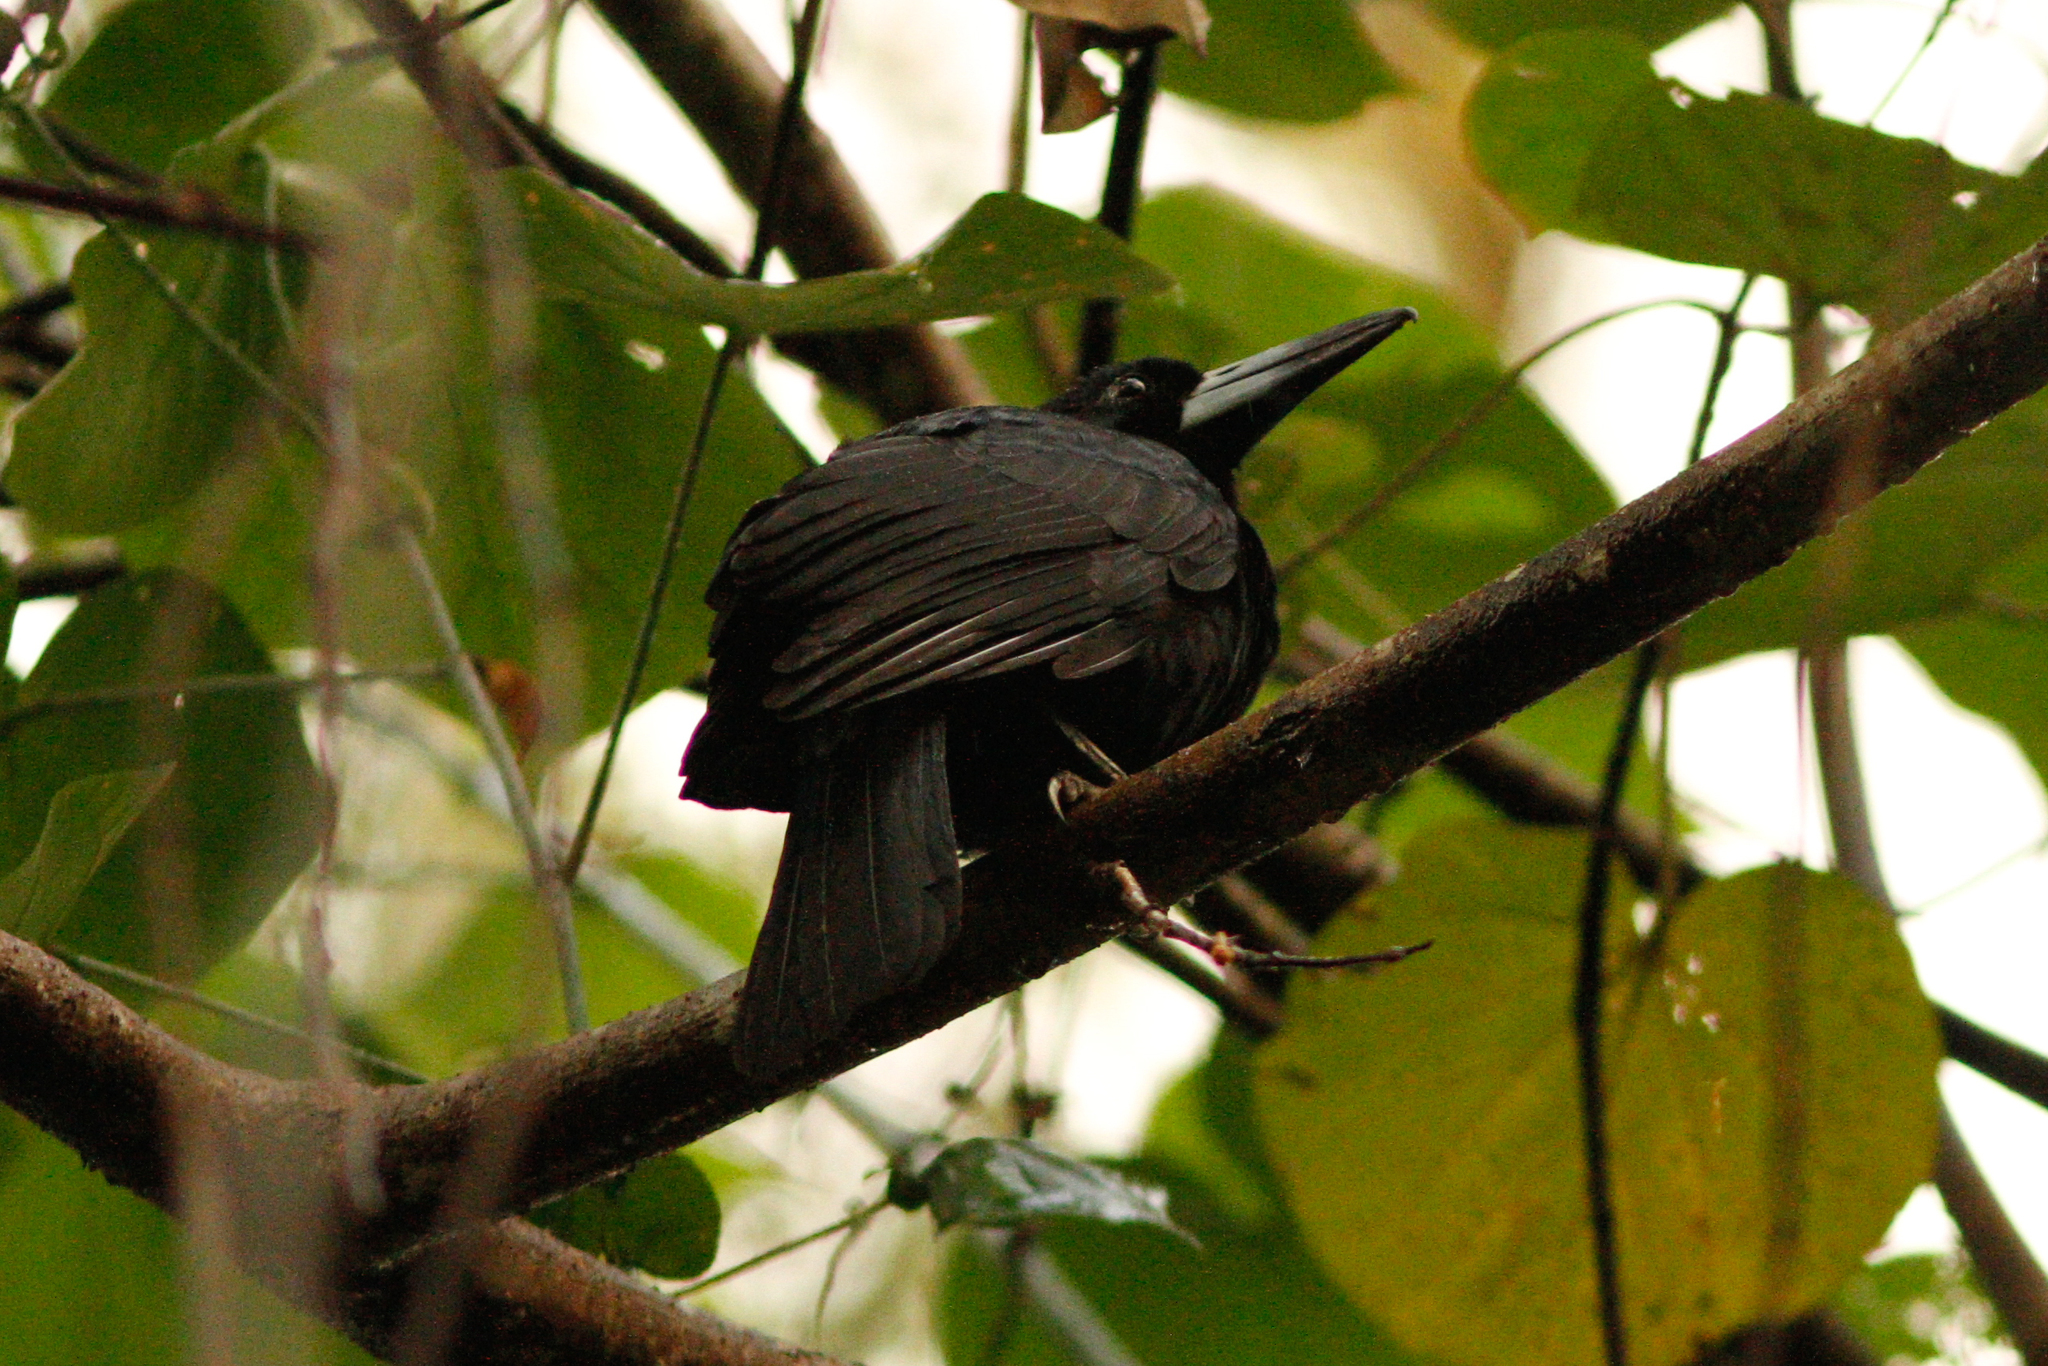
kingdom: Animalia
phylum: Chordata
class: Aves
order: Passeriformes
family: Artamidae
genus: Melloria
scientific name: Melloria quoyi
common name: Black butcherbird
